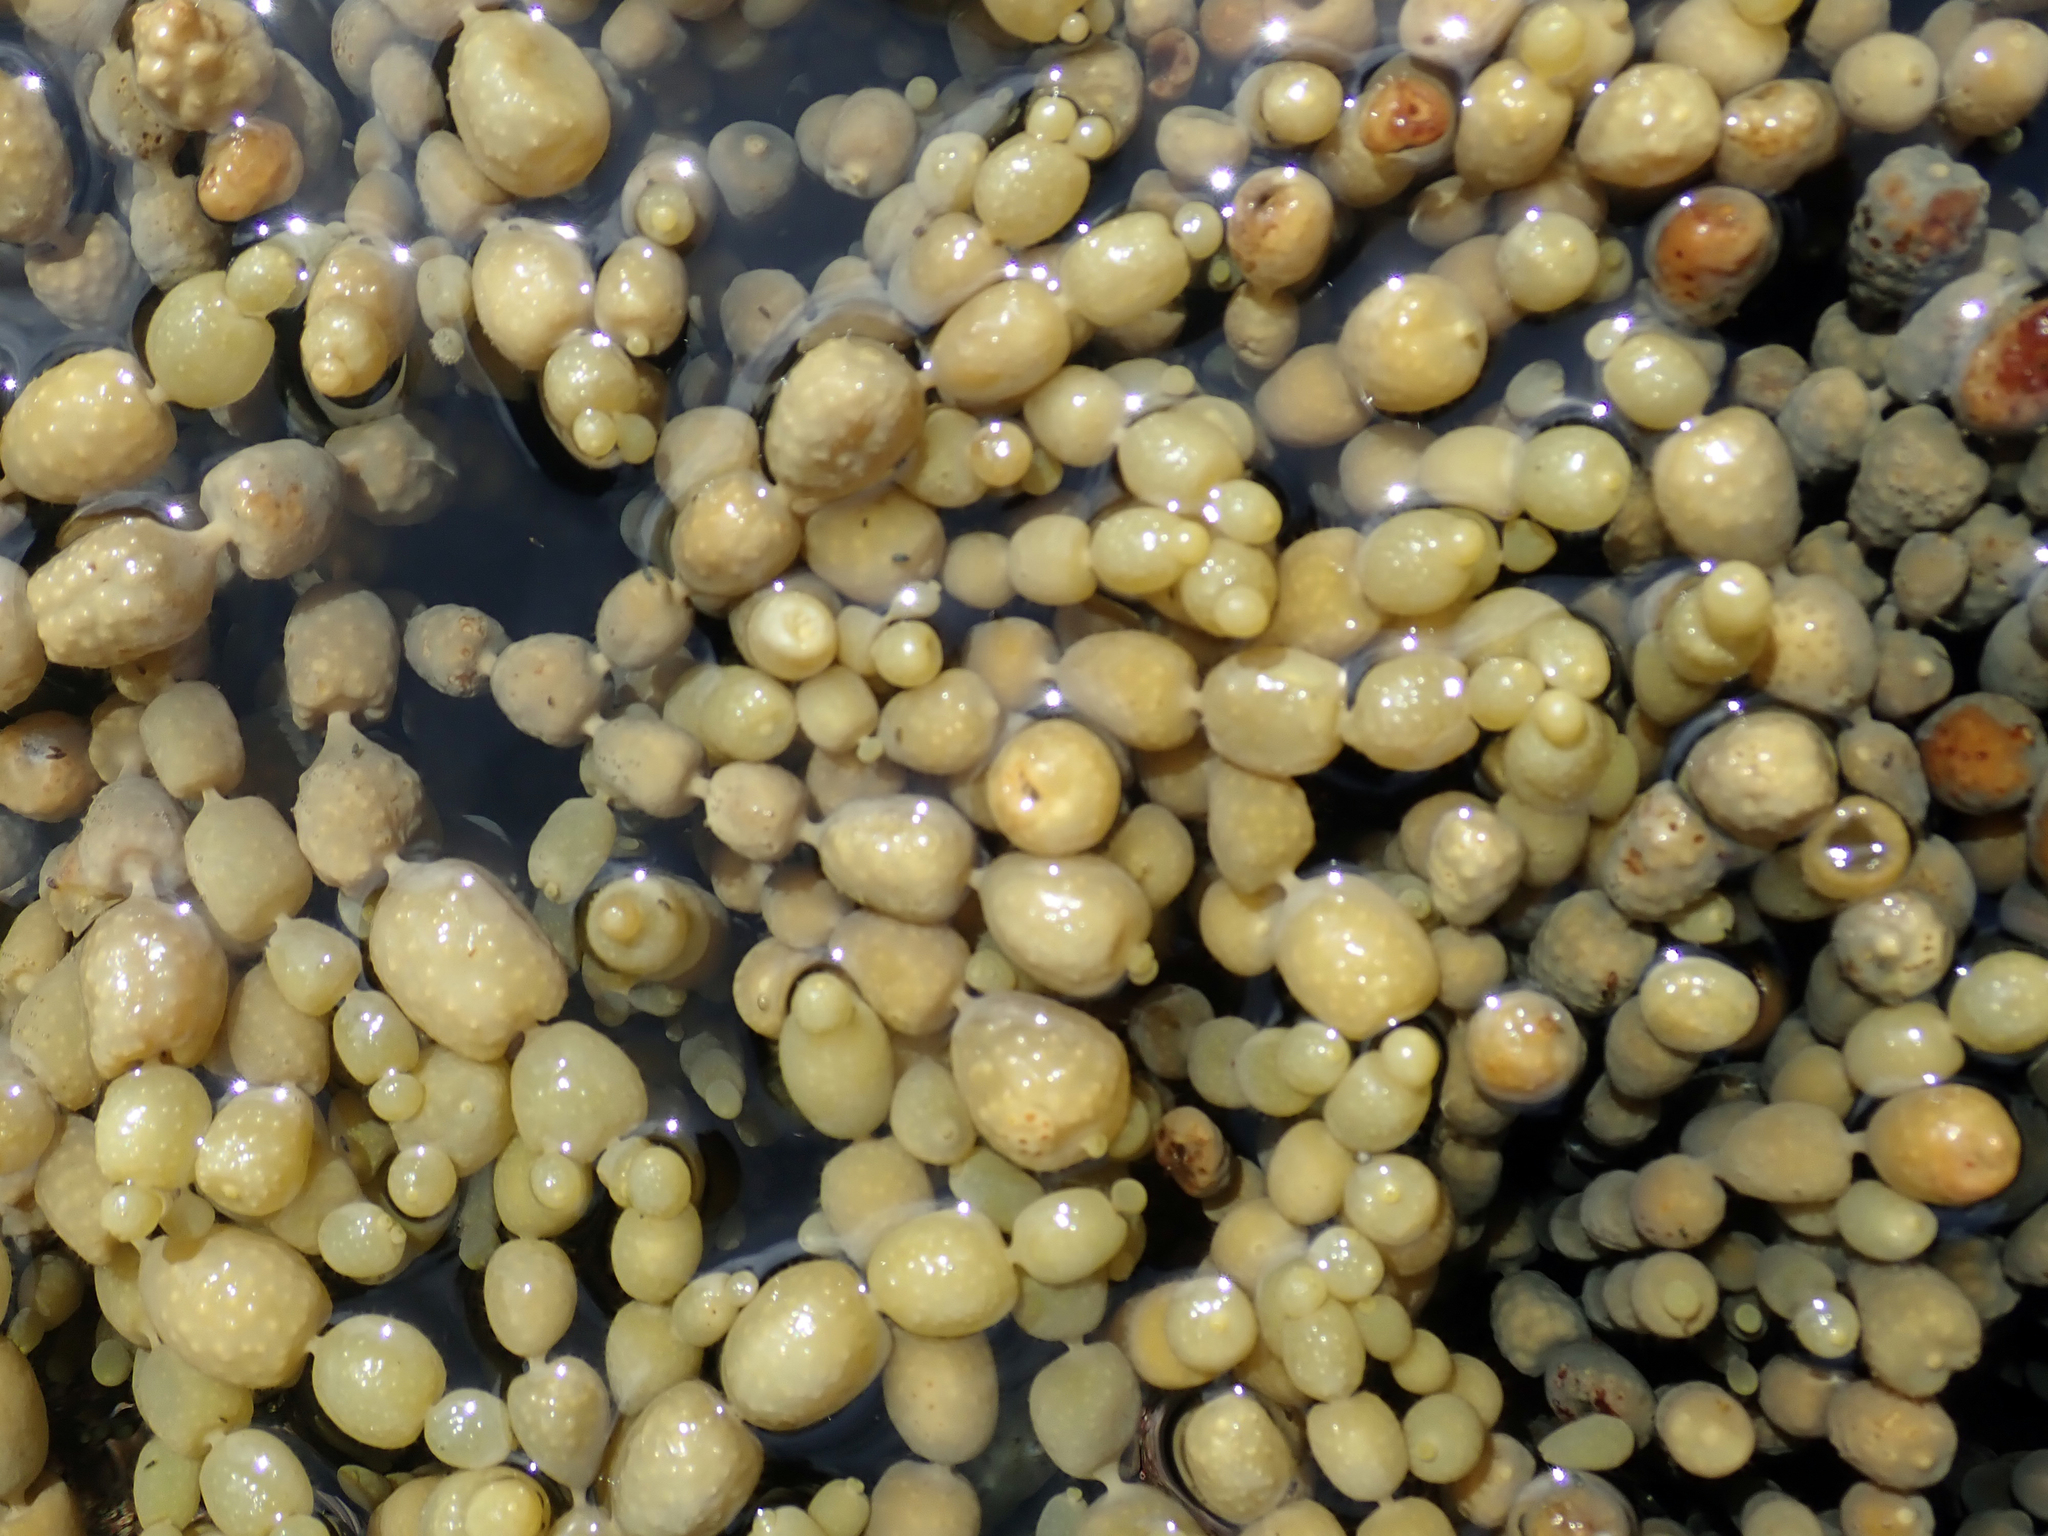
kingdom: Chromista
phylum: Ochrophyta
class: Phaeophyceae
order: Fucales
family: Hormosiraceae
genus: Hormosira
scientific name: Hormosira banksii
